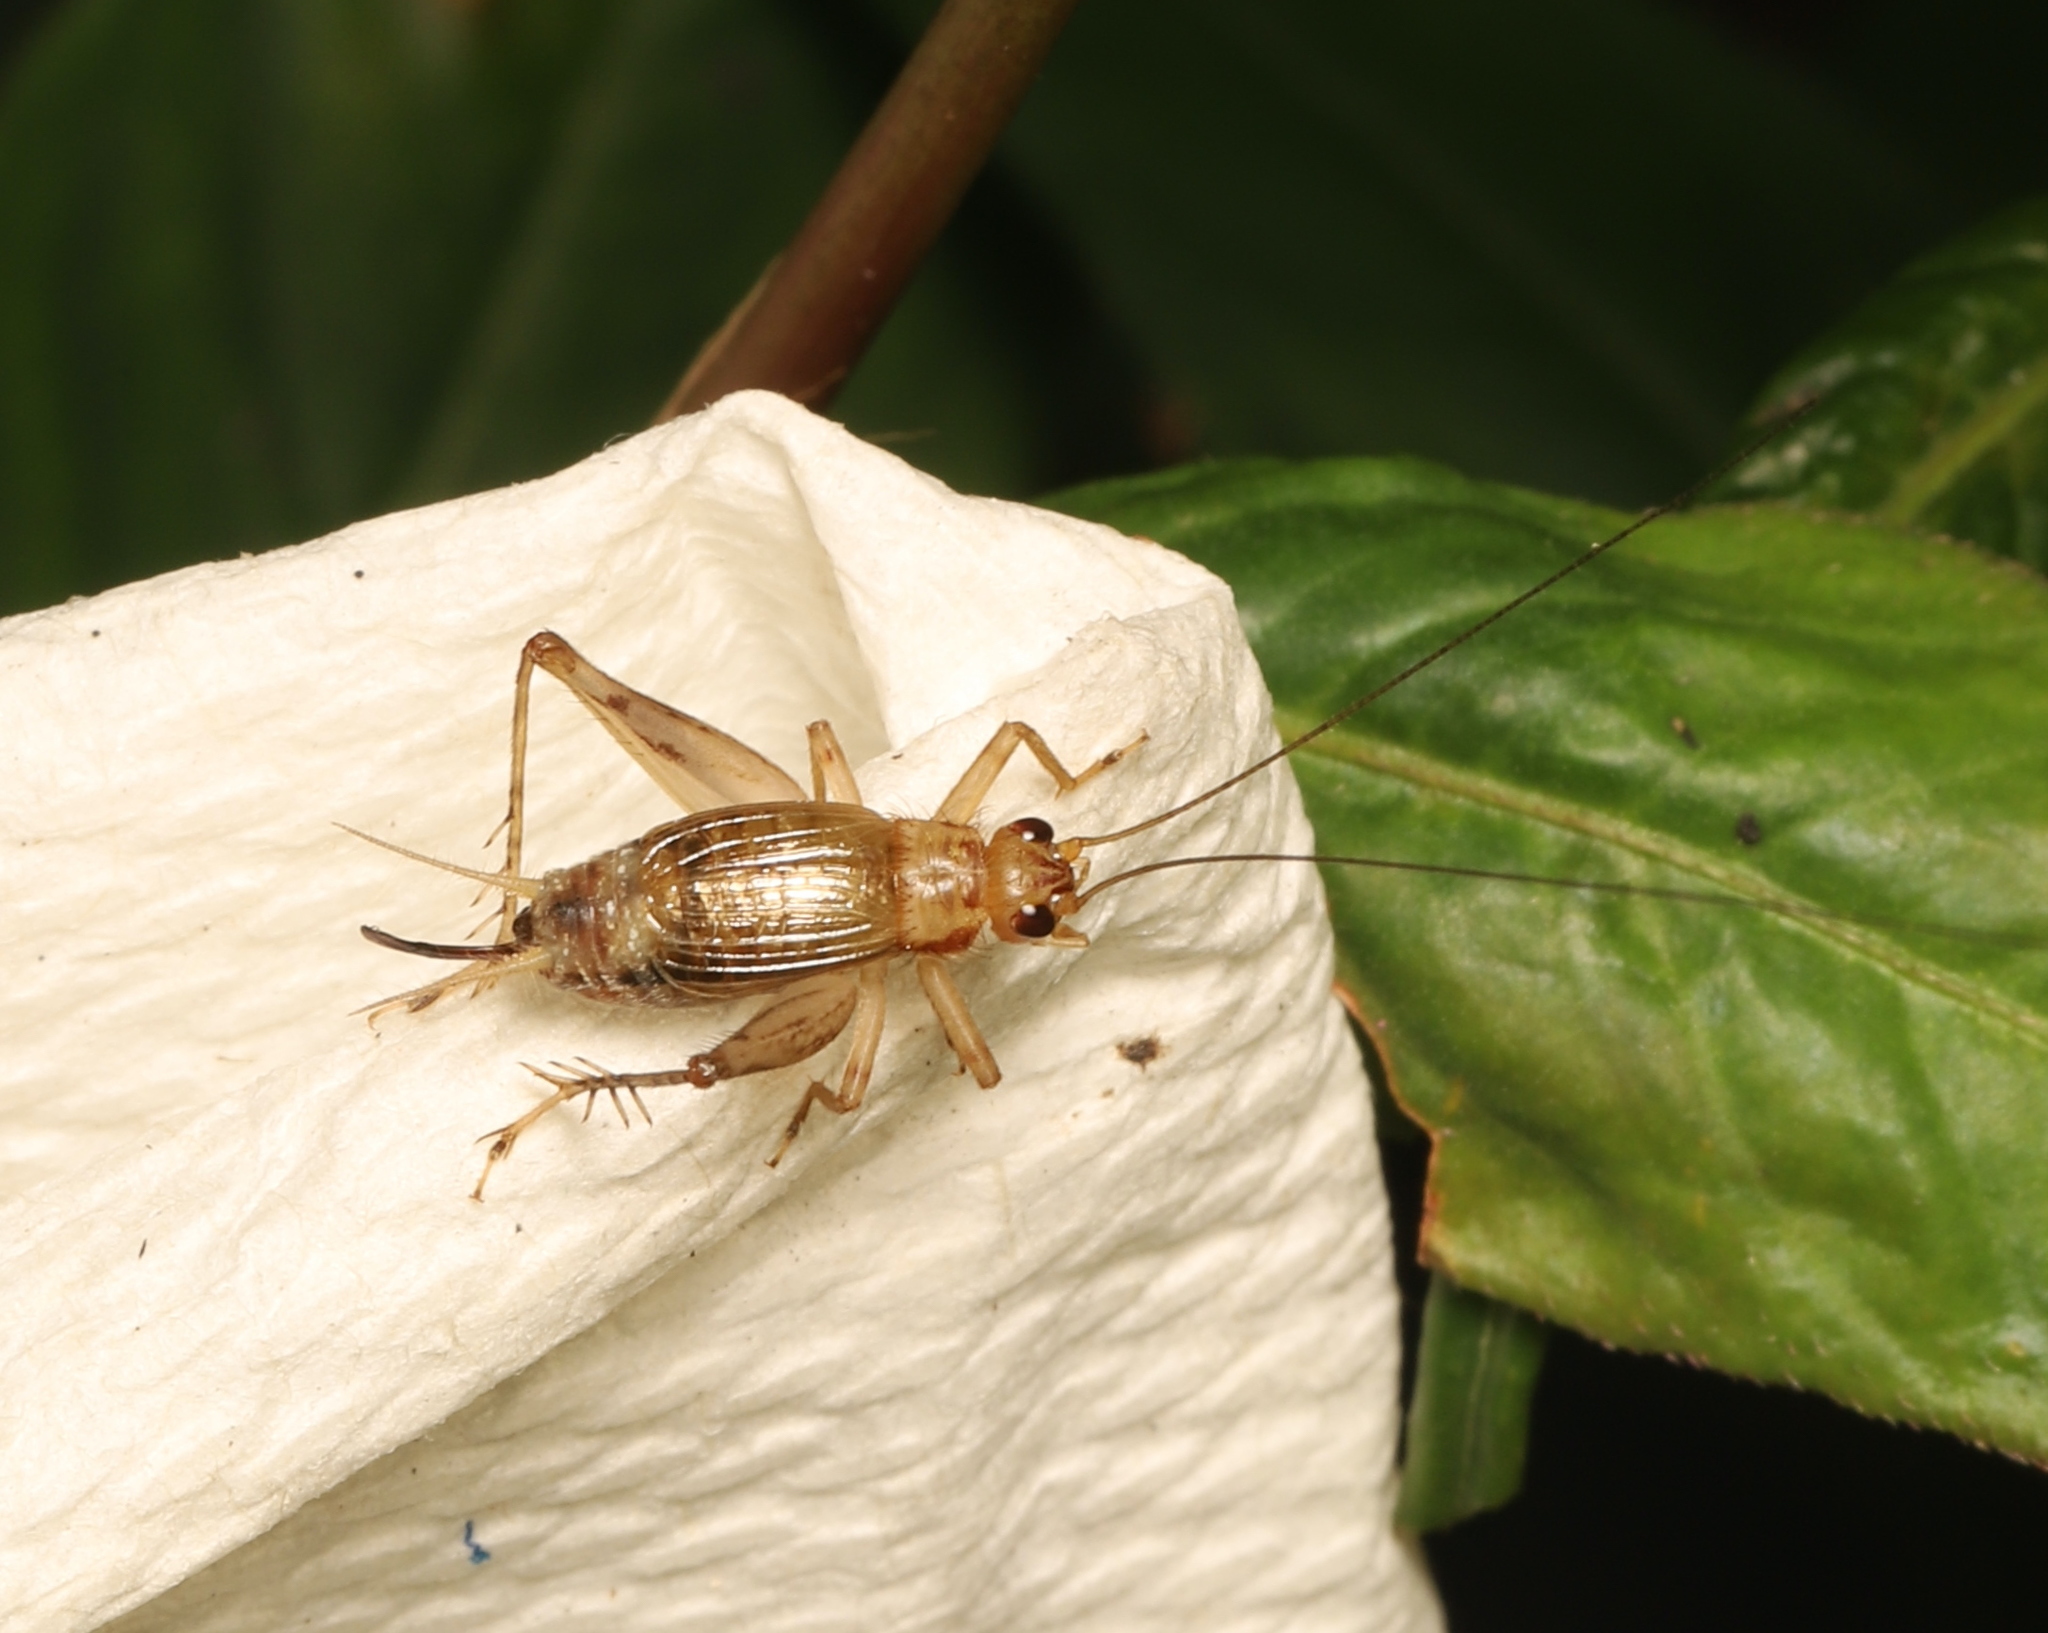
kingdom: Animalia
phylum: Arthropoda
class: Insecta
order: Orthoptera
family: Trigonidiidae
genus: Anaxipha
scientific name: Anaxipha exigua
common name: Say's bush cricket
